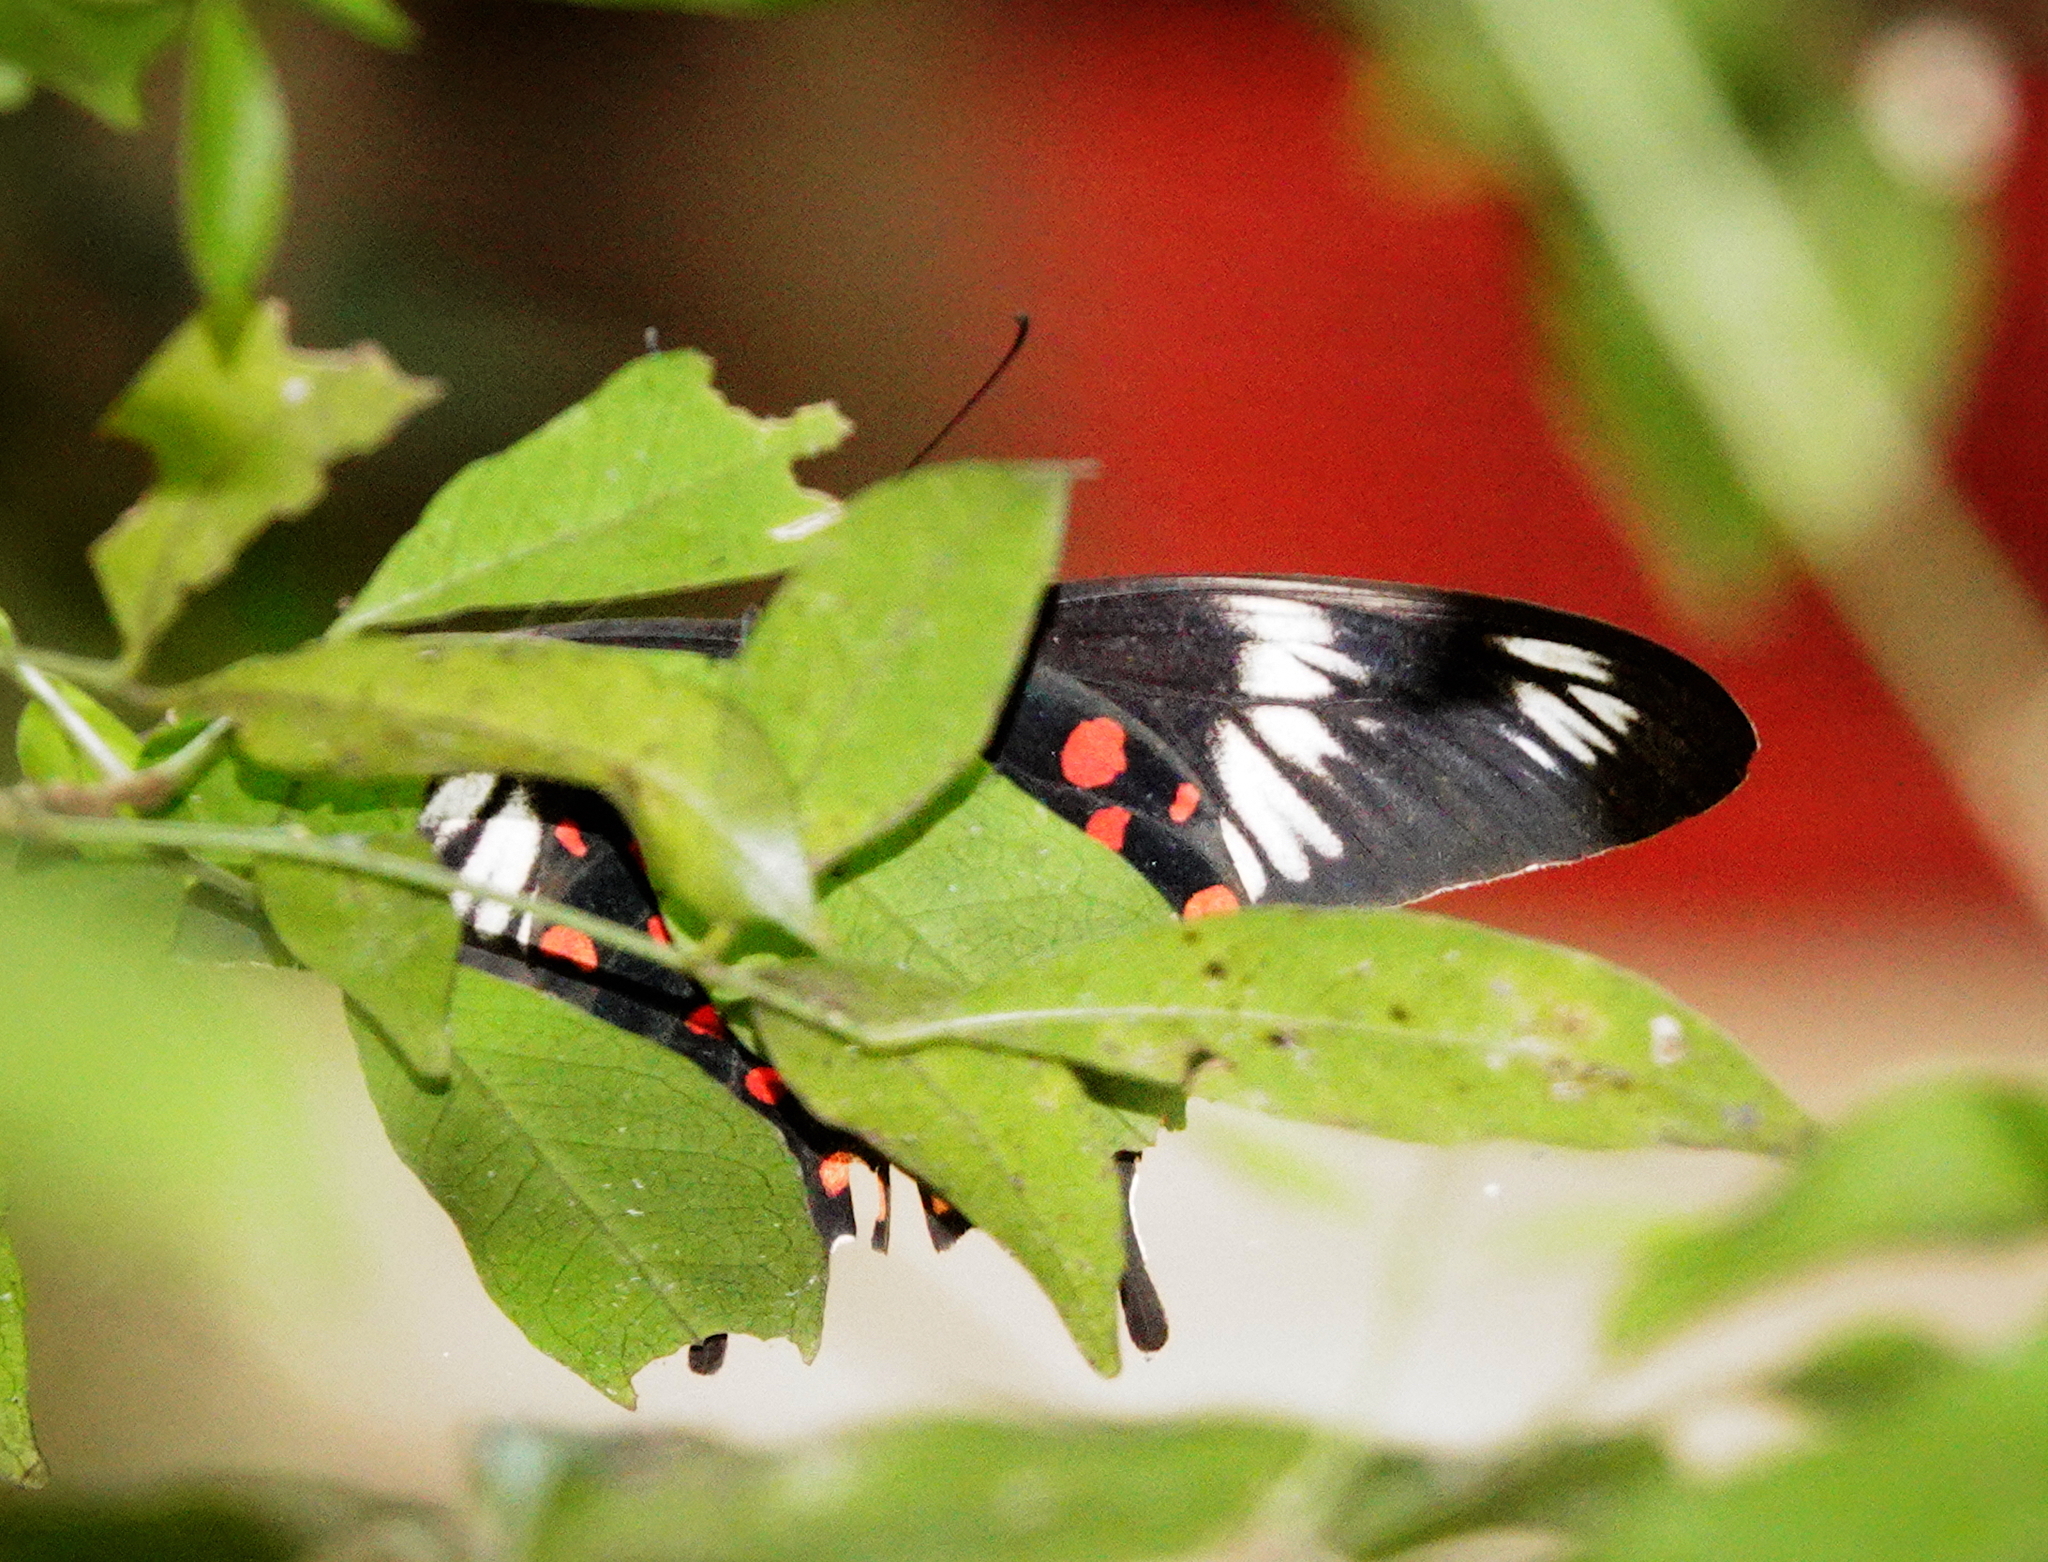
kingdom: Animalia
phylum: Arthropoda
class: Insecta
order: Lepidoptera
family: Papilionidae
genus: Pachliopta
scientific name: Pachliopta hector
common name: Crimson rose
